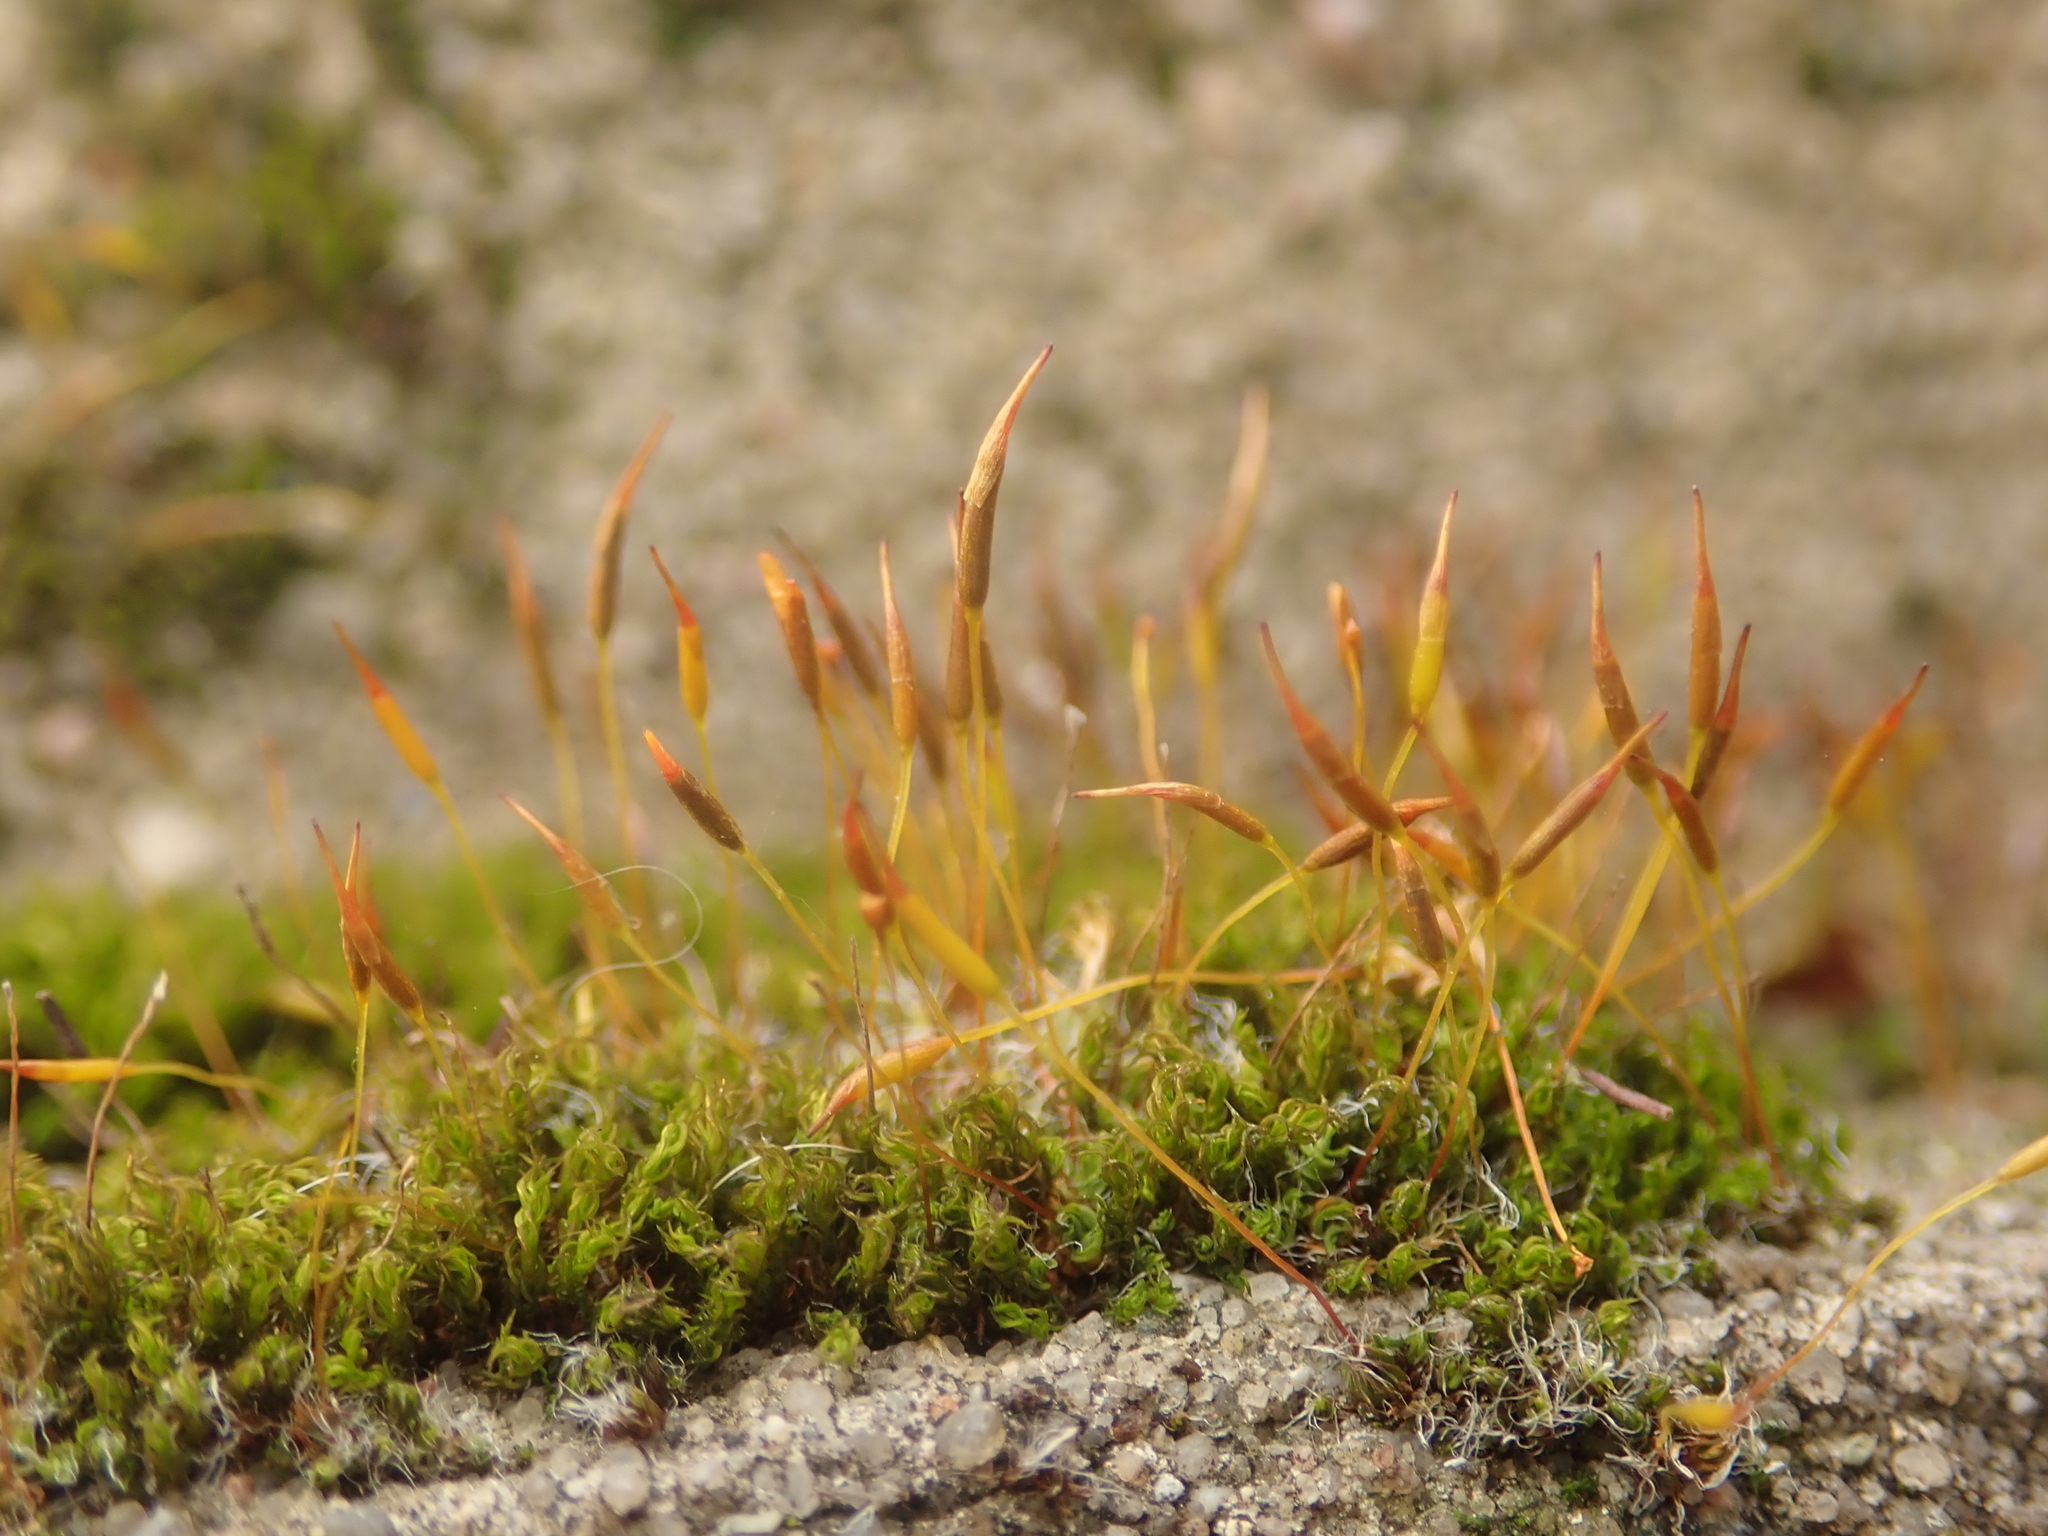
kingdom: Plantae
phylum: Bryophyta
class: Bryopsida
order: Pottiales
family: Pottiaceae
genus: Tortula
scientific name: Tortula muralis
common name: Wall screw-moss
